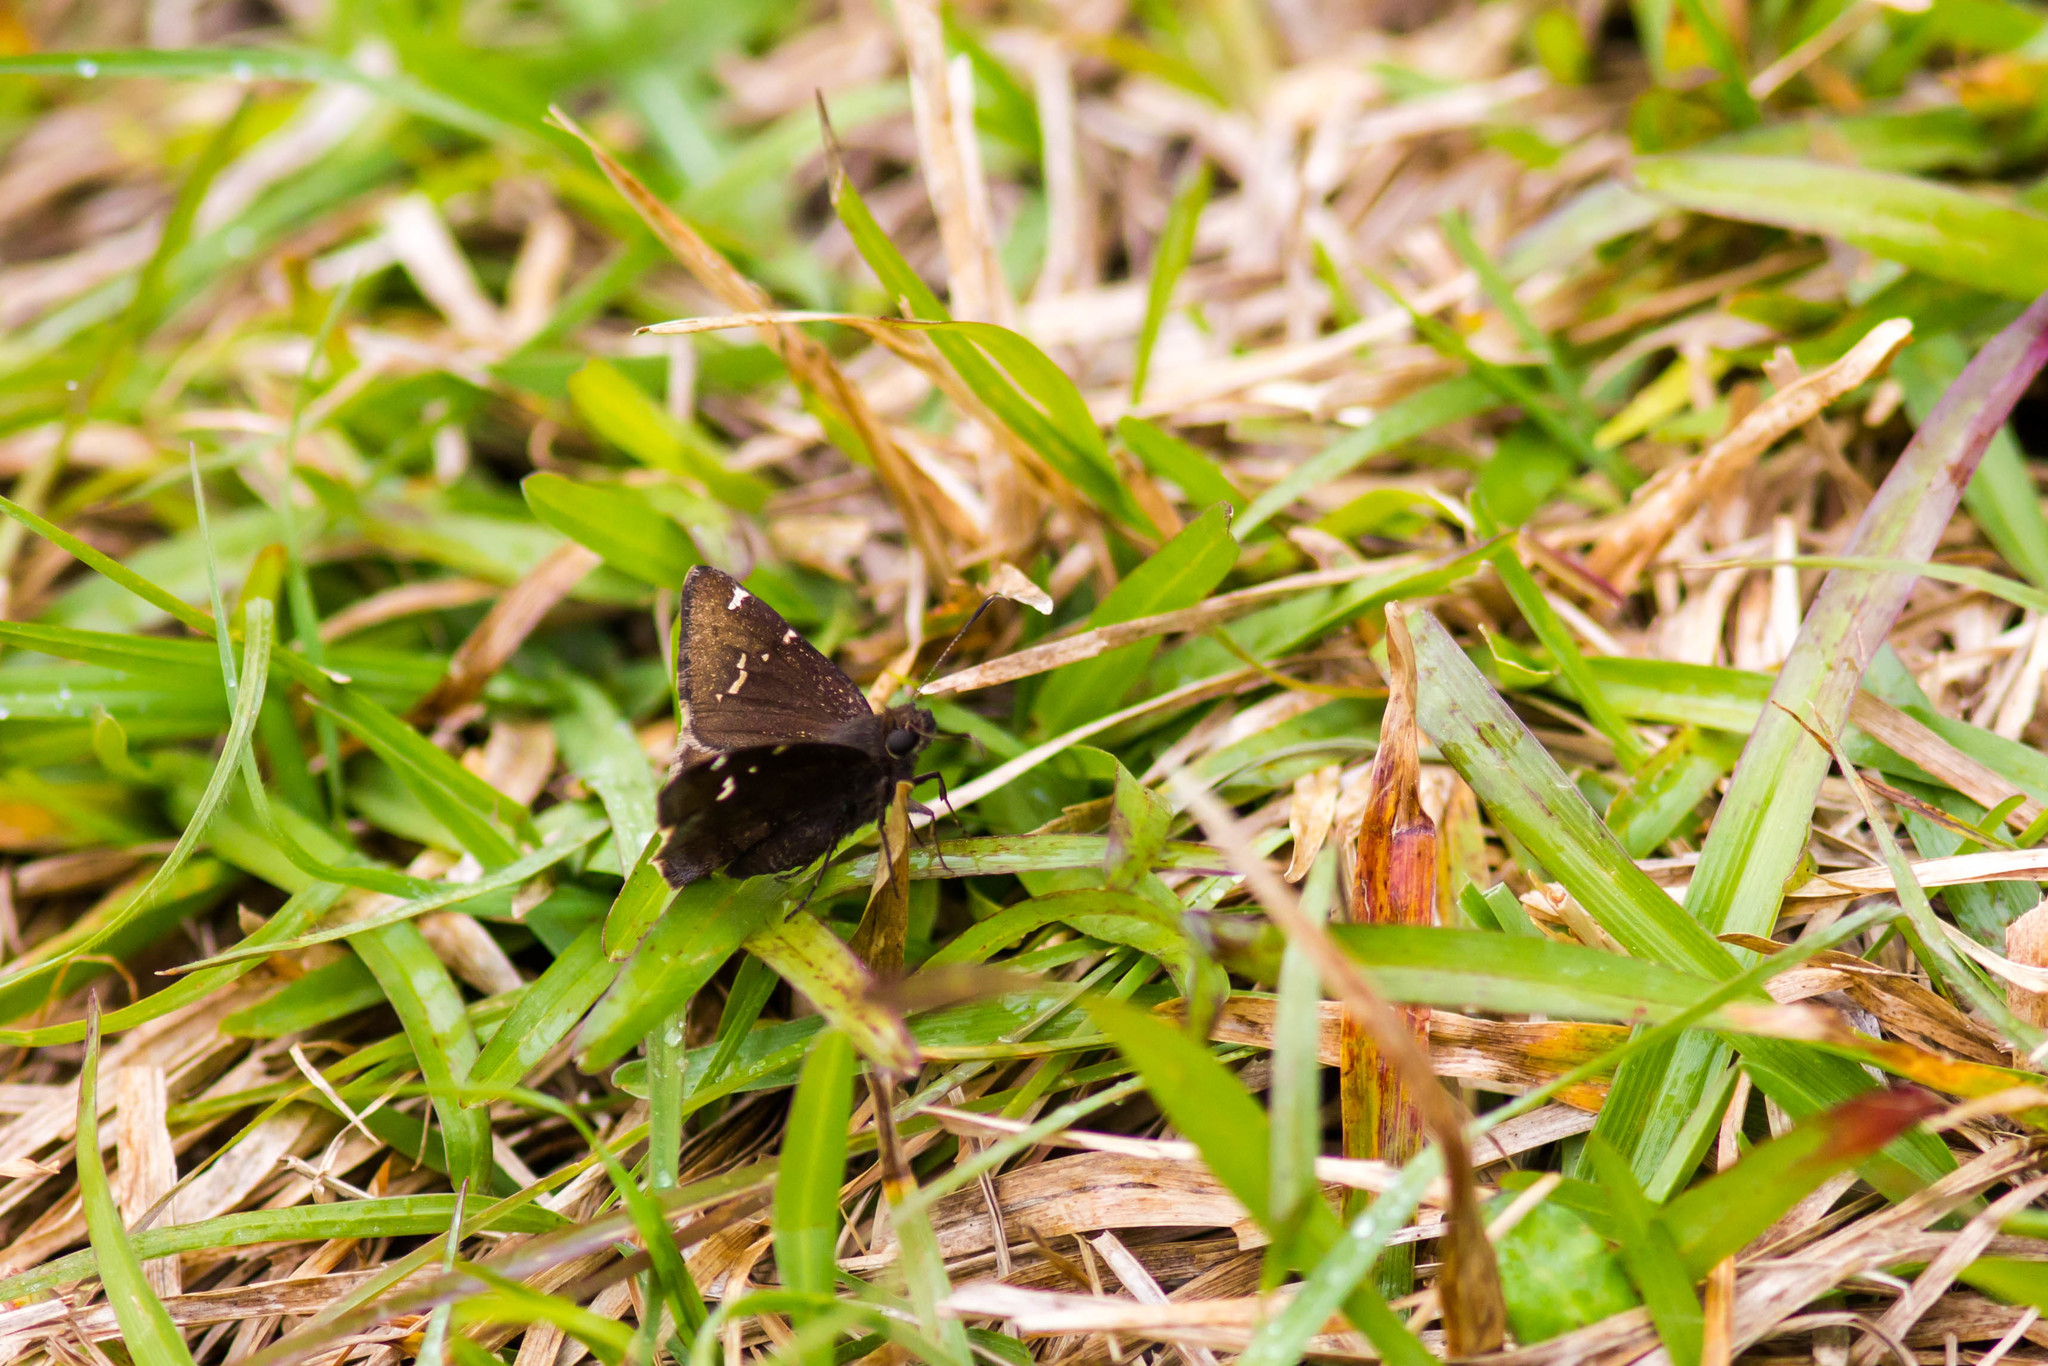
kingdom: Animalia
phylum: Arthropoda
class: Insecta
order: Lepidoptera
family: Hesperiidae
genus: Thorybes
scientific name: Thorybes daunus
